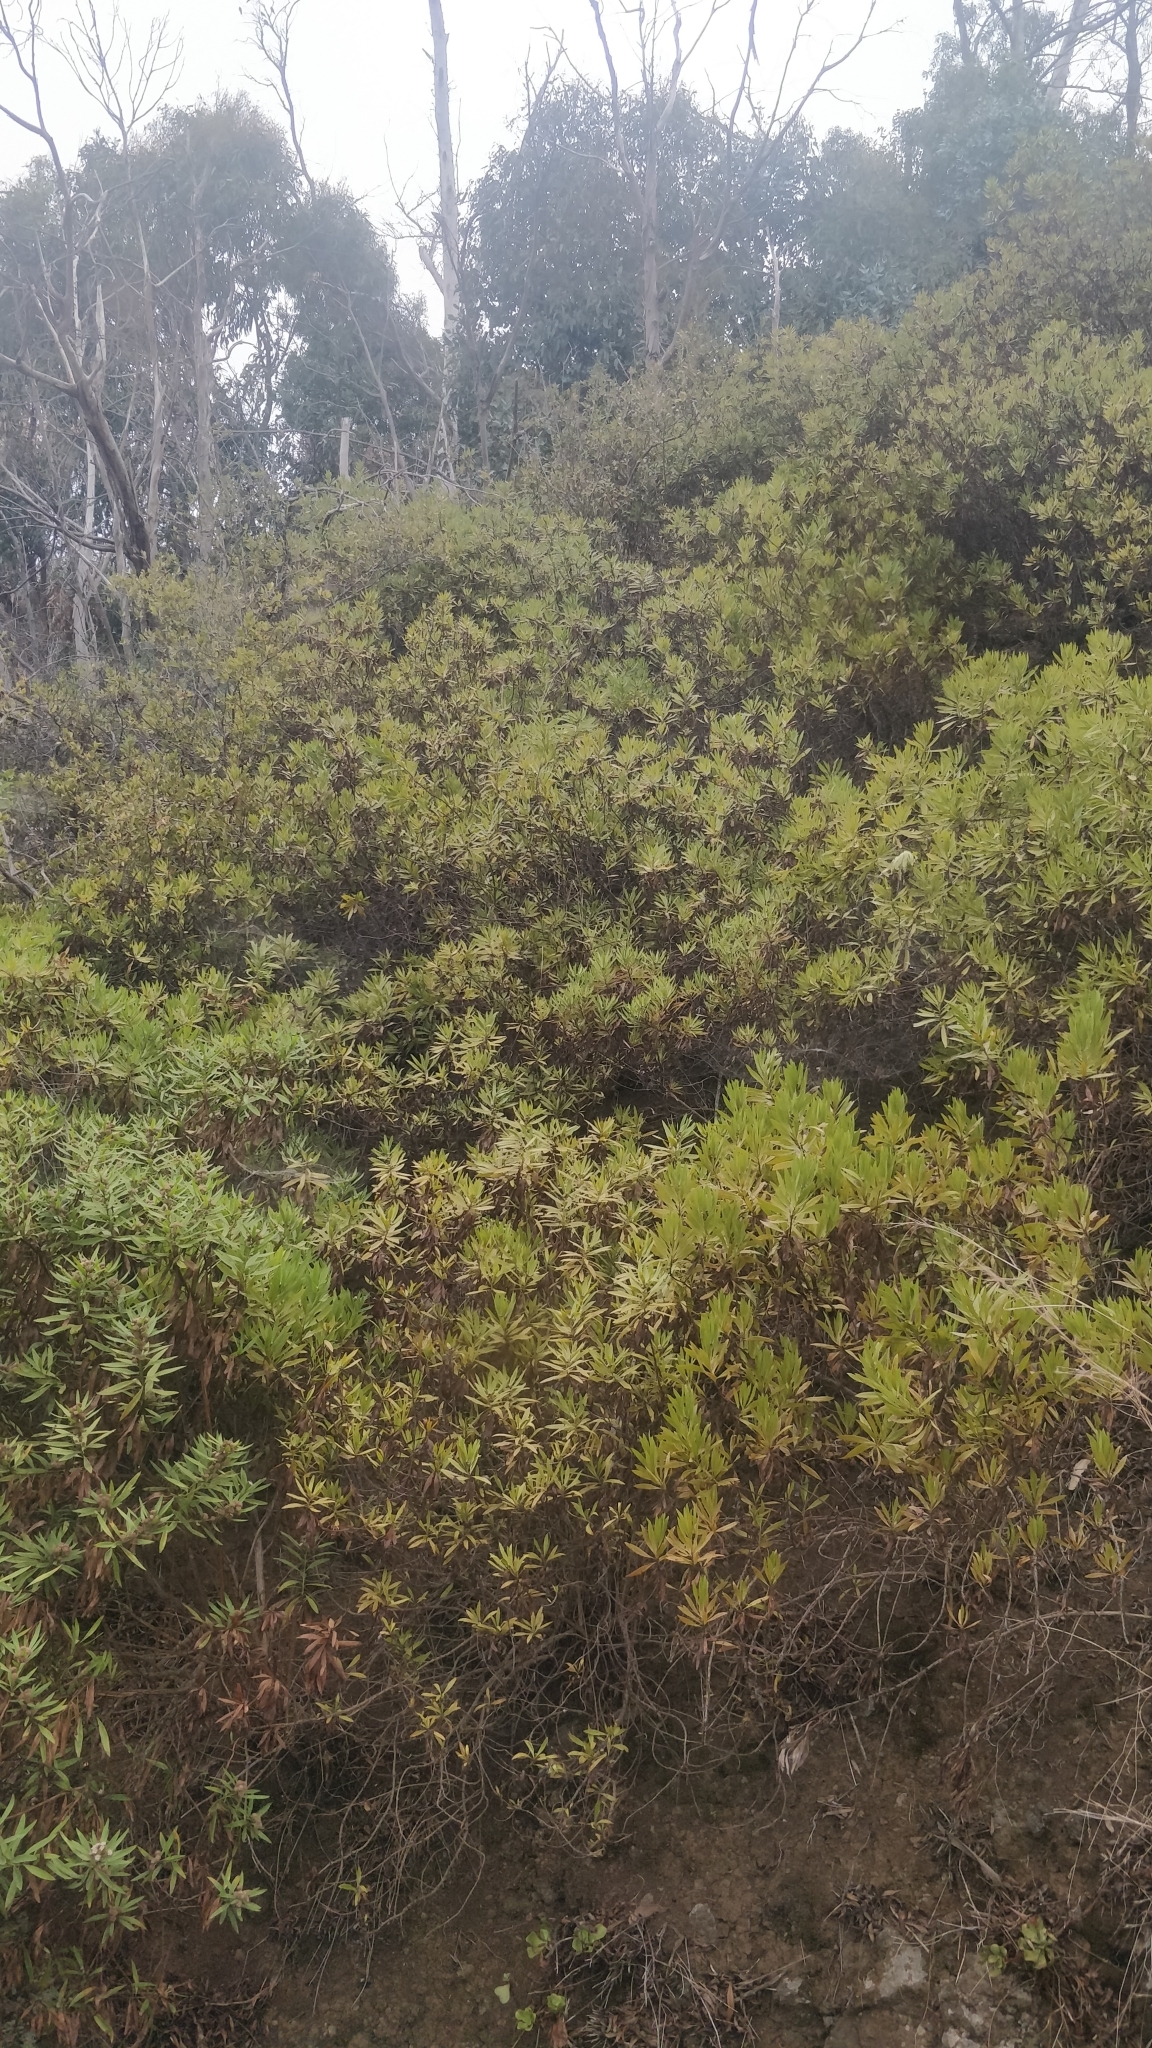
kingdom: Plantae
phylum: Tracheophyta
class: Magnoliopsida
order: Lamiales
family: Plantaginaceae
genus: Globularia
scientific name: Globularia salicina
